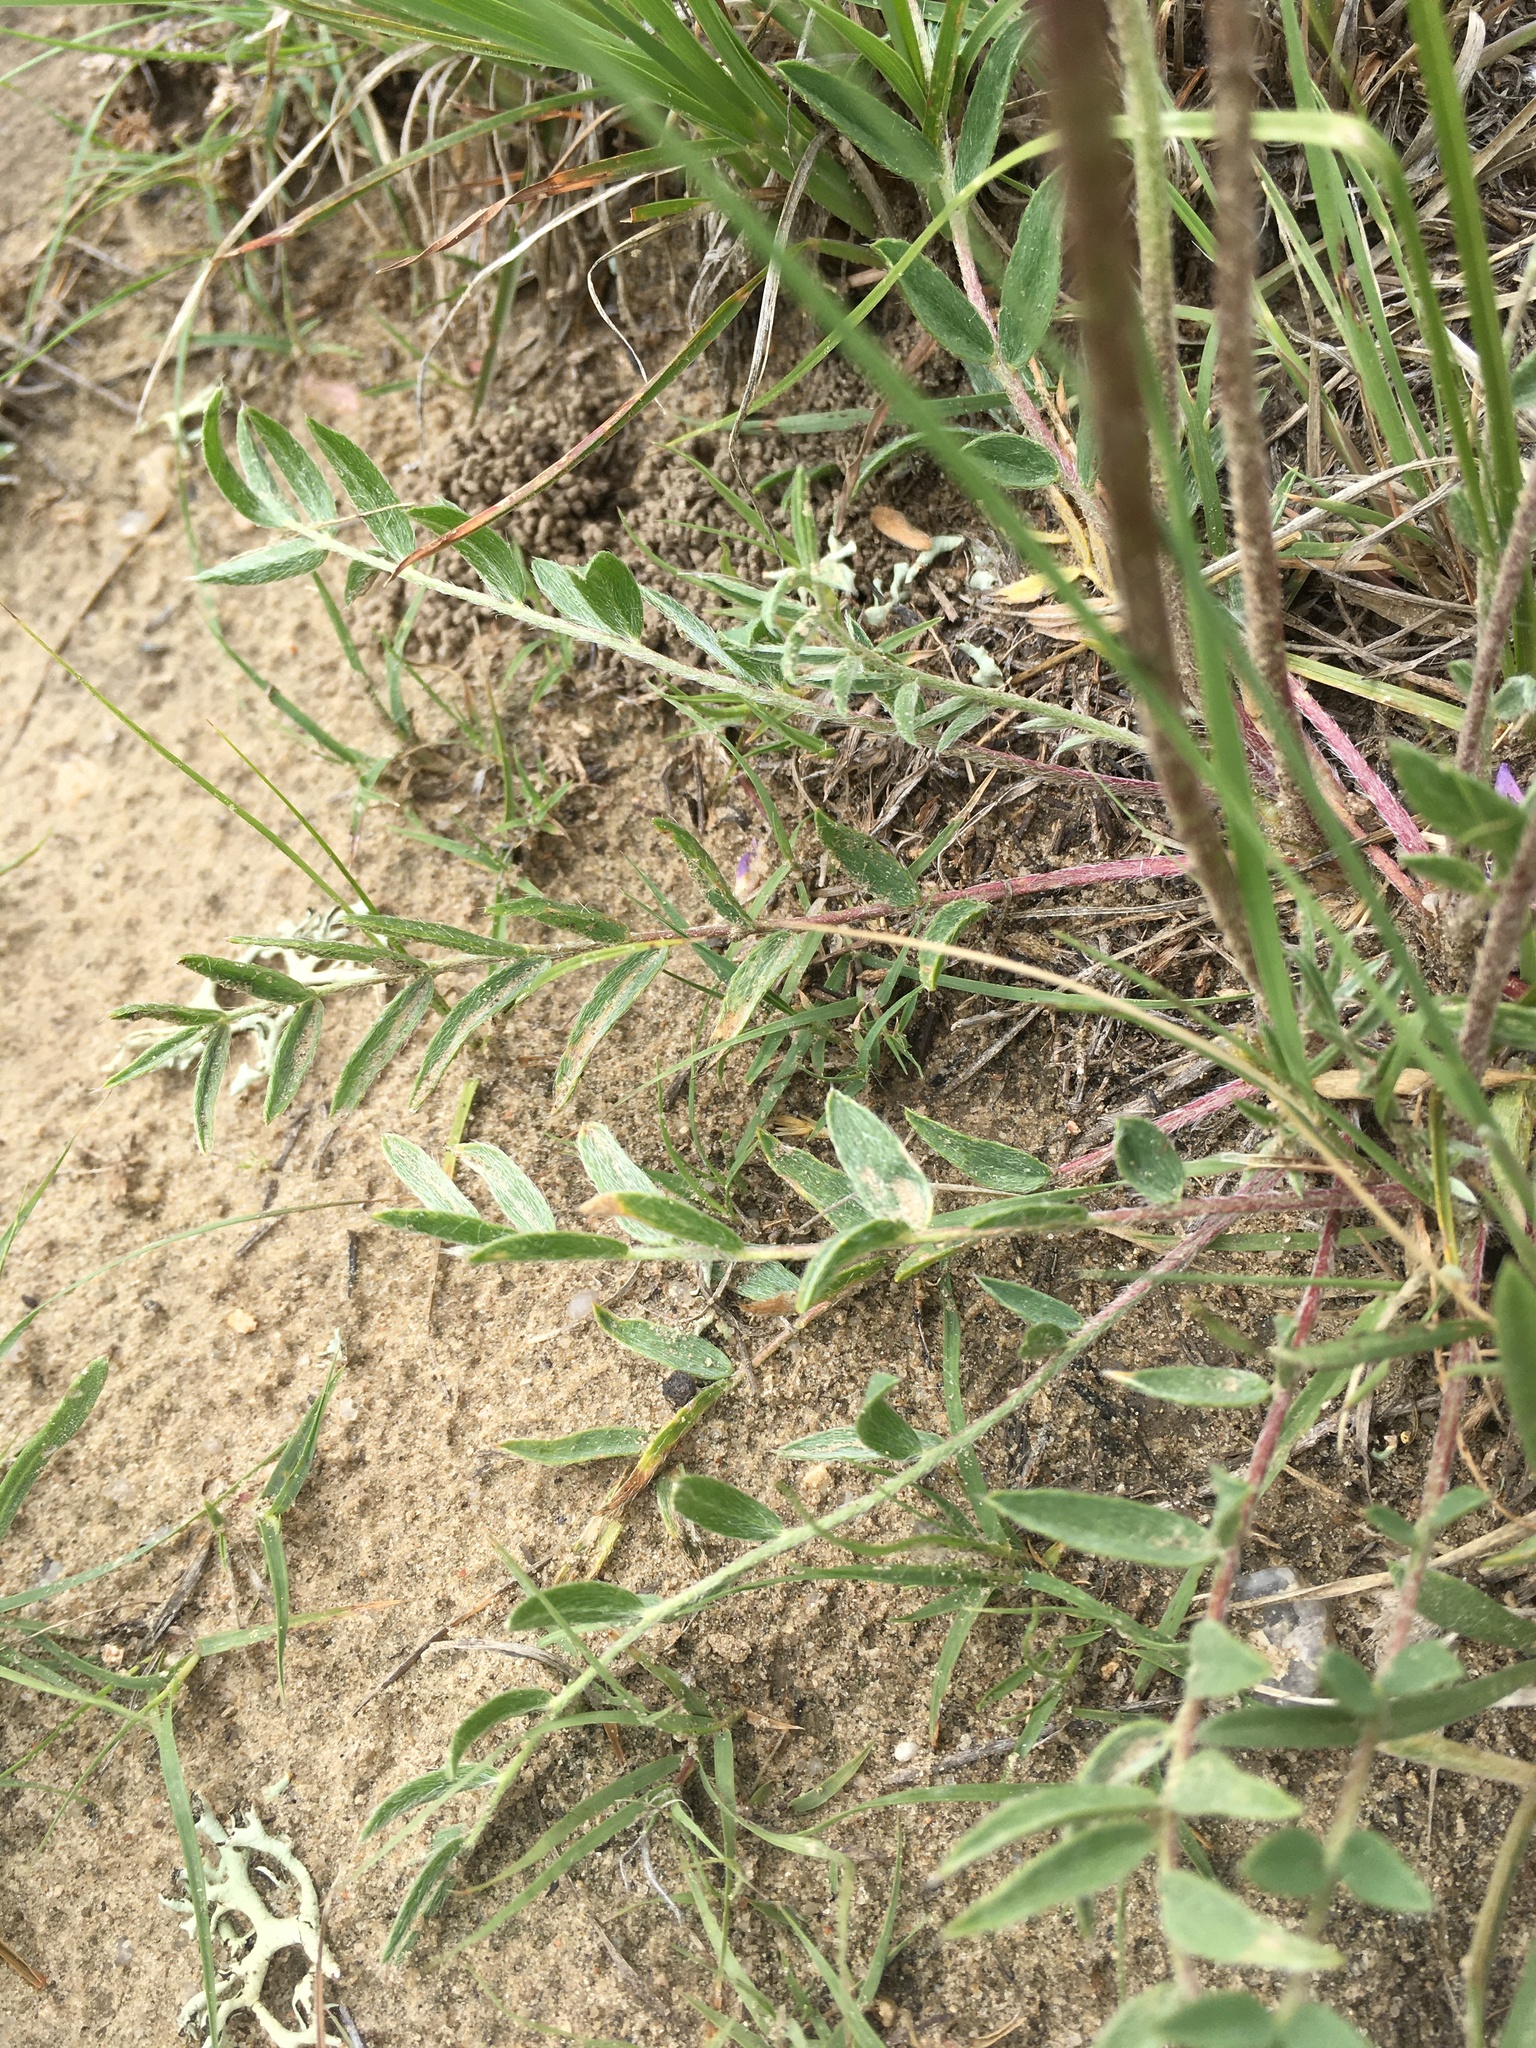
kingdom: Plantae
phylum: Tracheophyta
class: Magnoliopsida
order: Fabales
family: Fabaceae
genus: Oxytropis
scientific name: Oxytropis lambertii
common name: Purple locoweed
